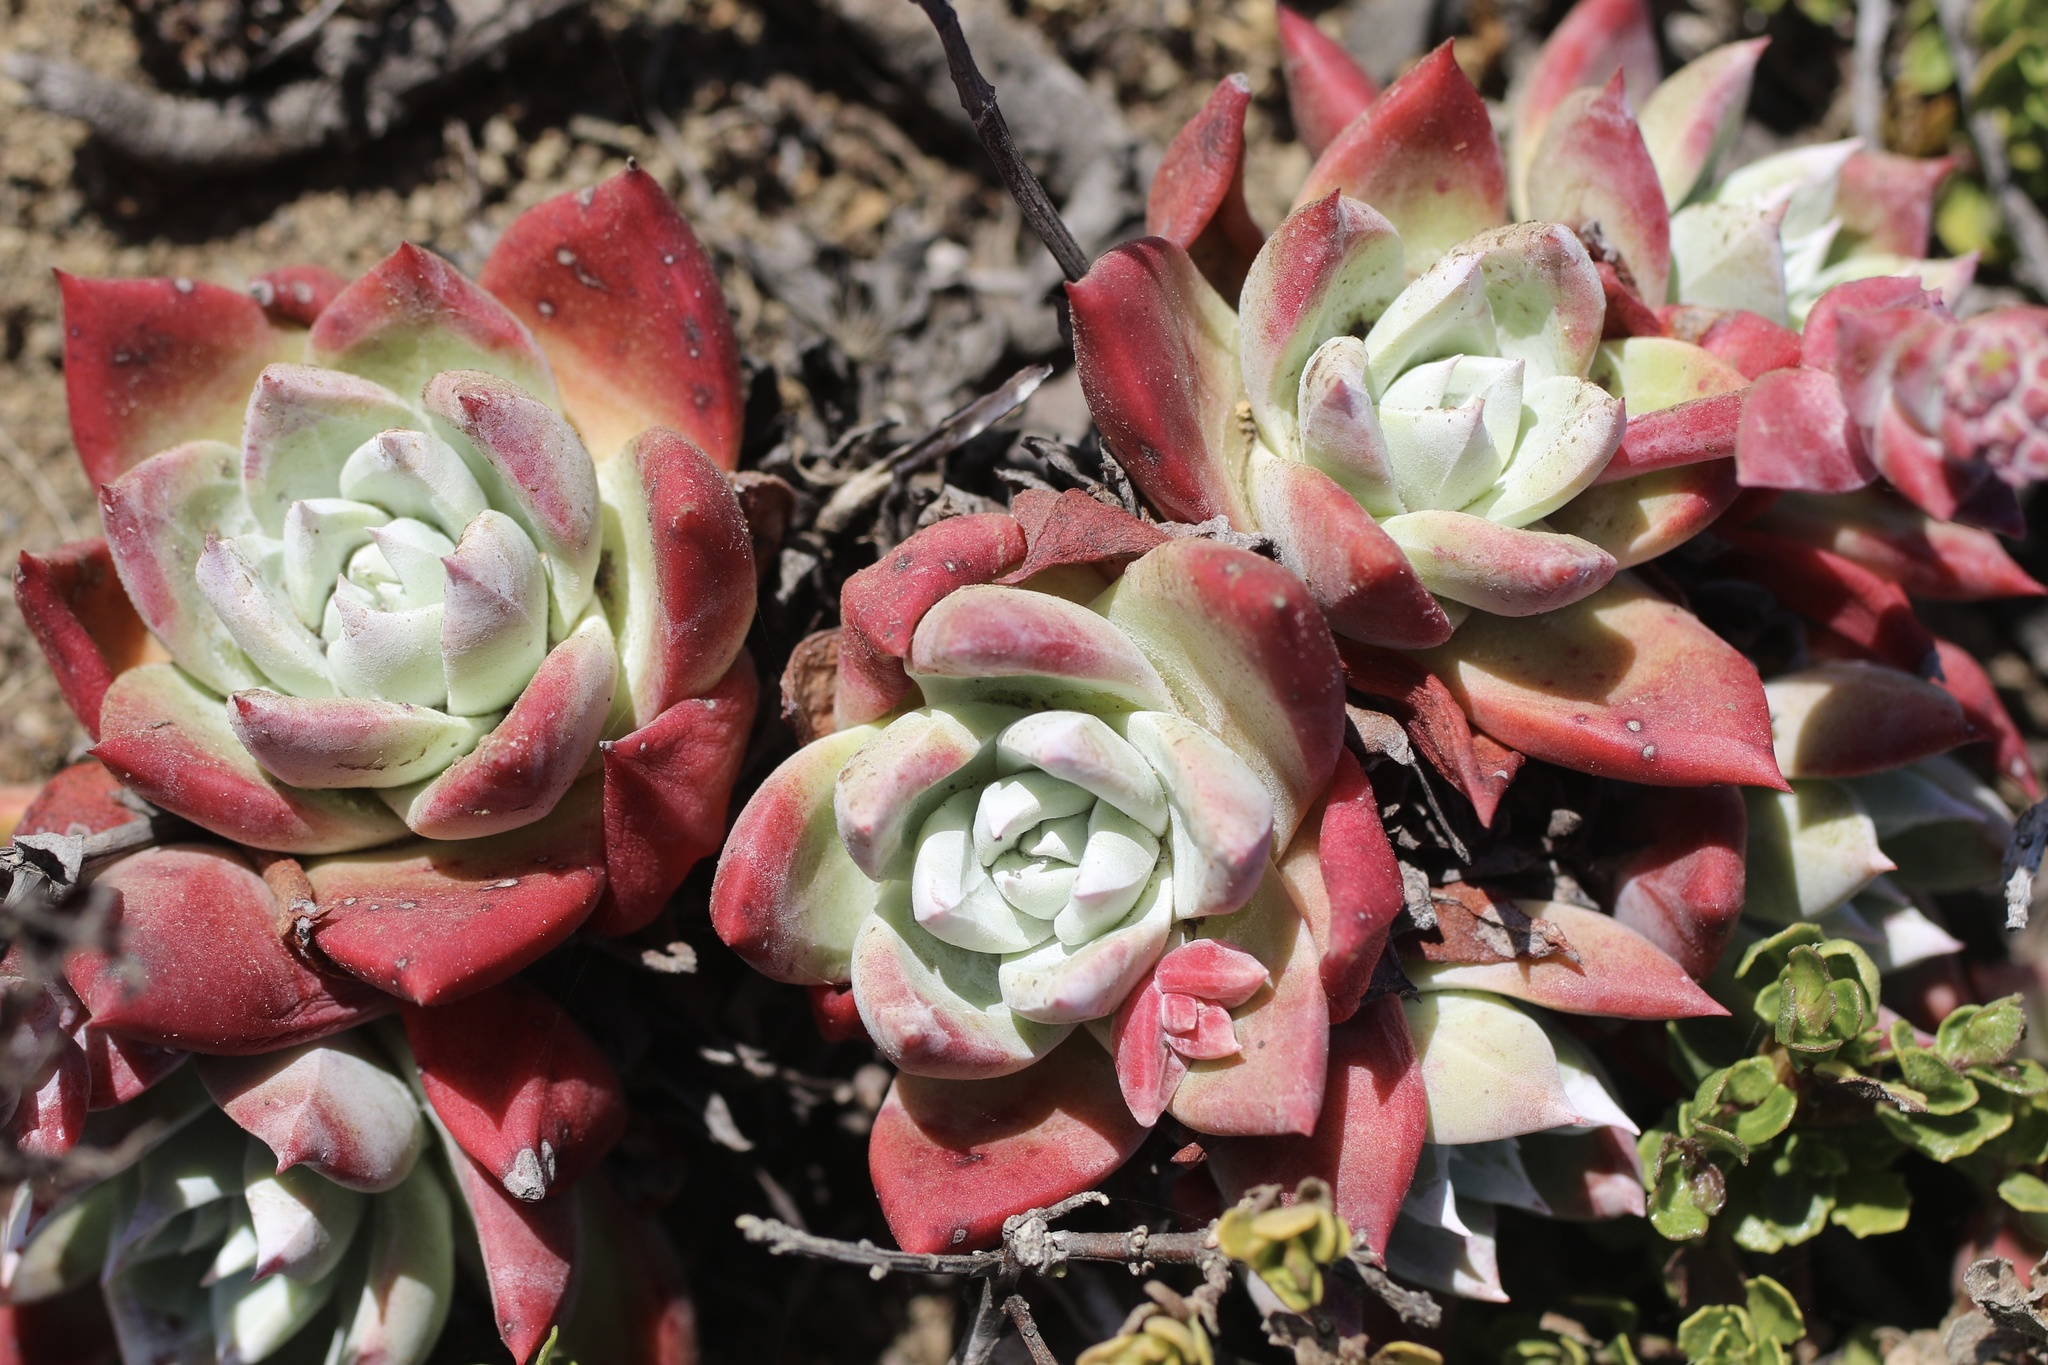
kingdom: Plantae
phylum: Tracheophyta
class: Magnoliopsida
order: Saxifragales
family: Crassulaceae
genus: Dudleya
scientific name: Dudleya farinosa
